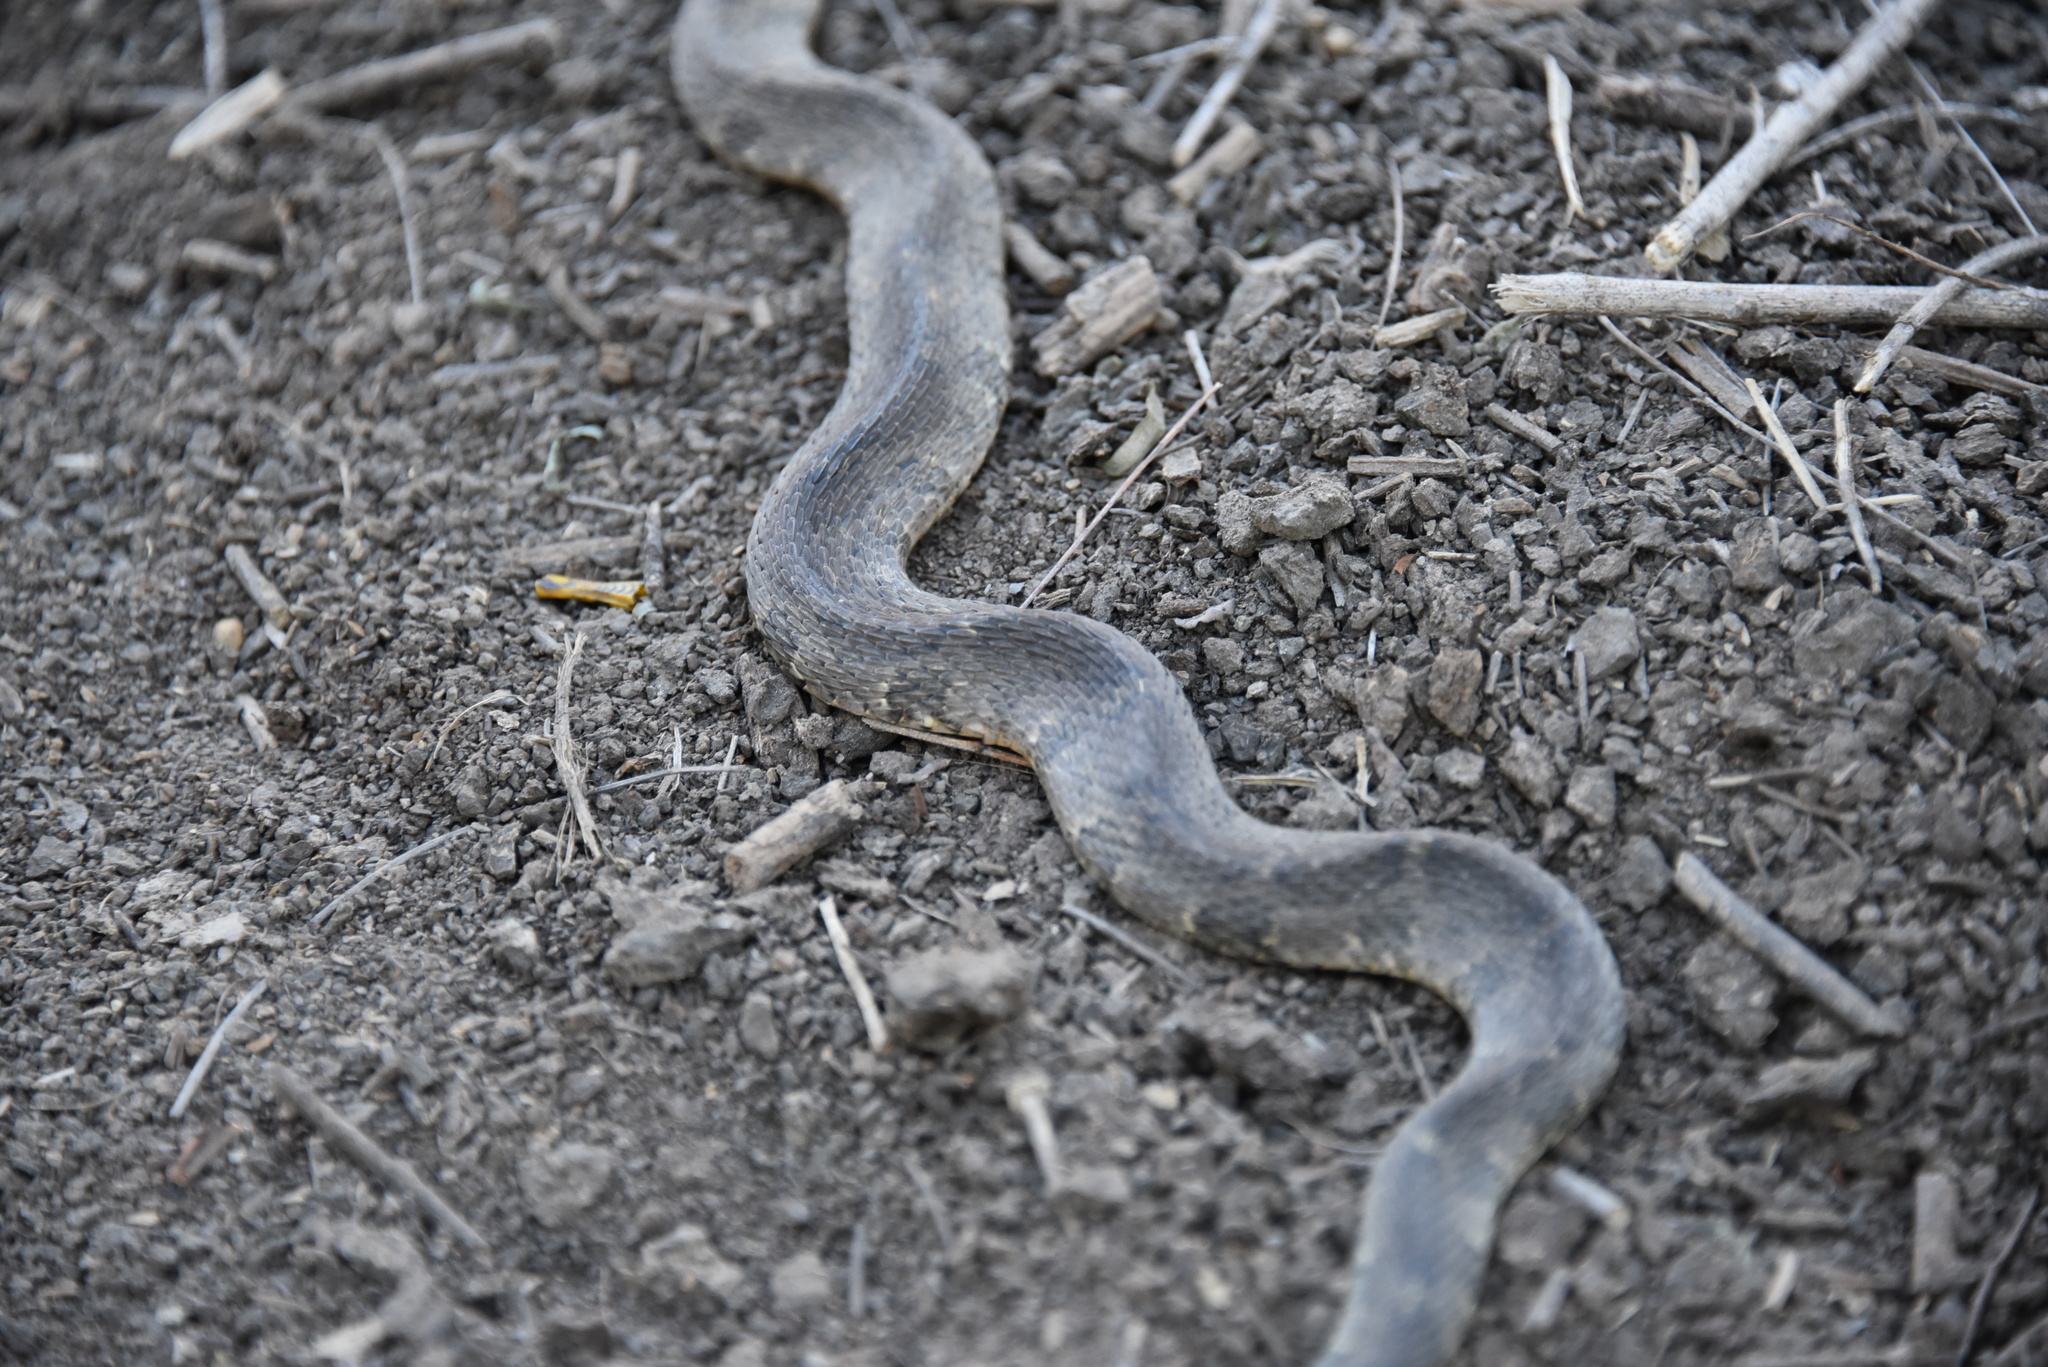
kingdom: Animalia
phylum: Chordata
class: Squamata
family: Colubridae
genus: Nerodia
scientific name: Nerodia erythrogaster
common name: Plainbelly water snake
